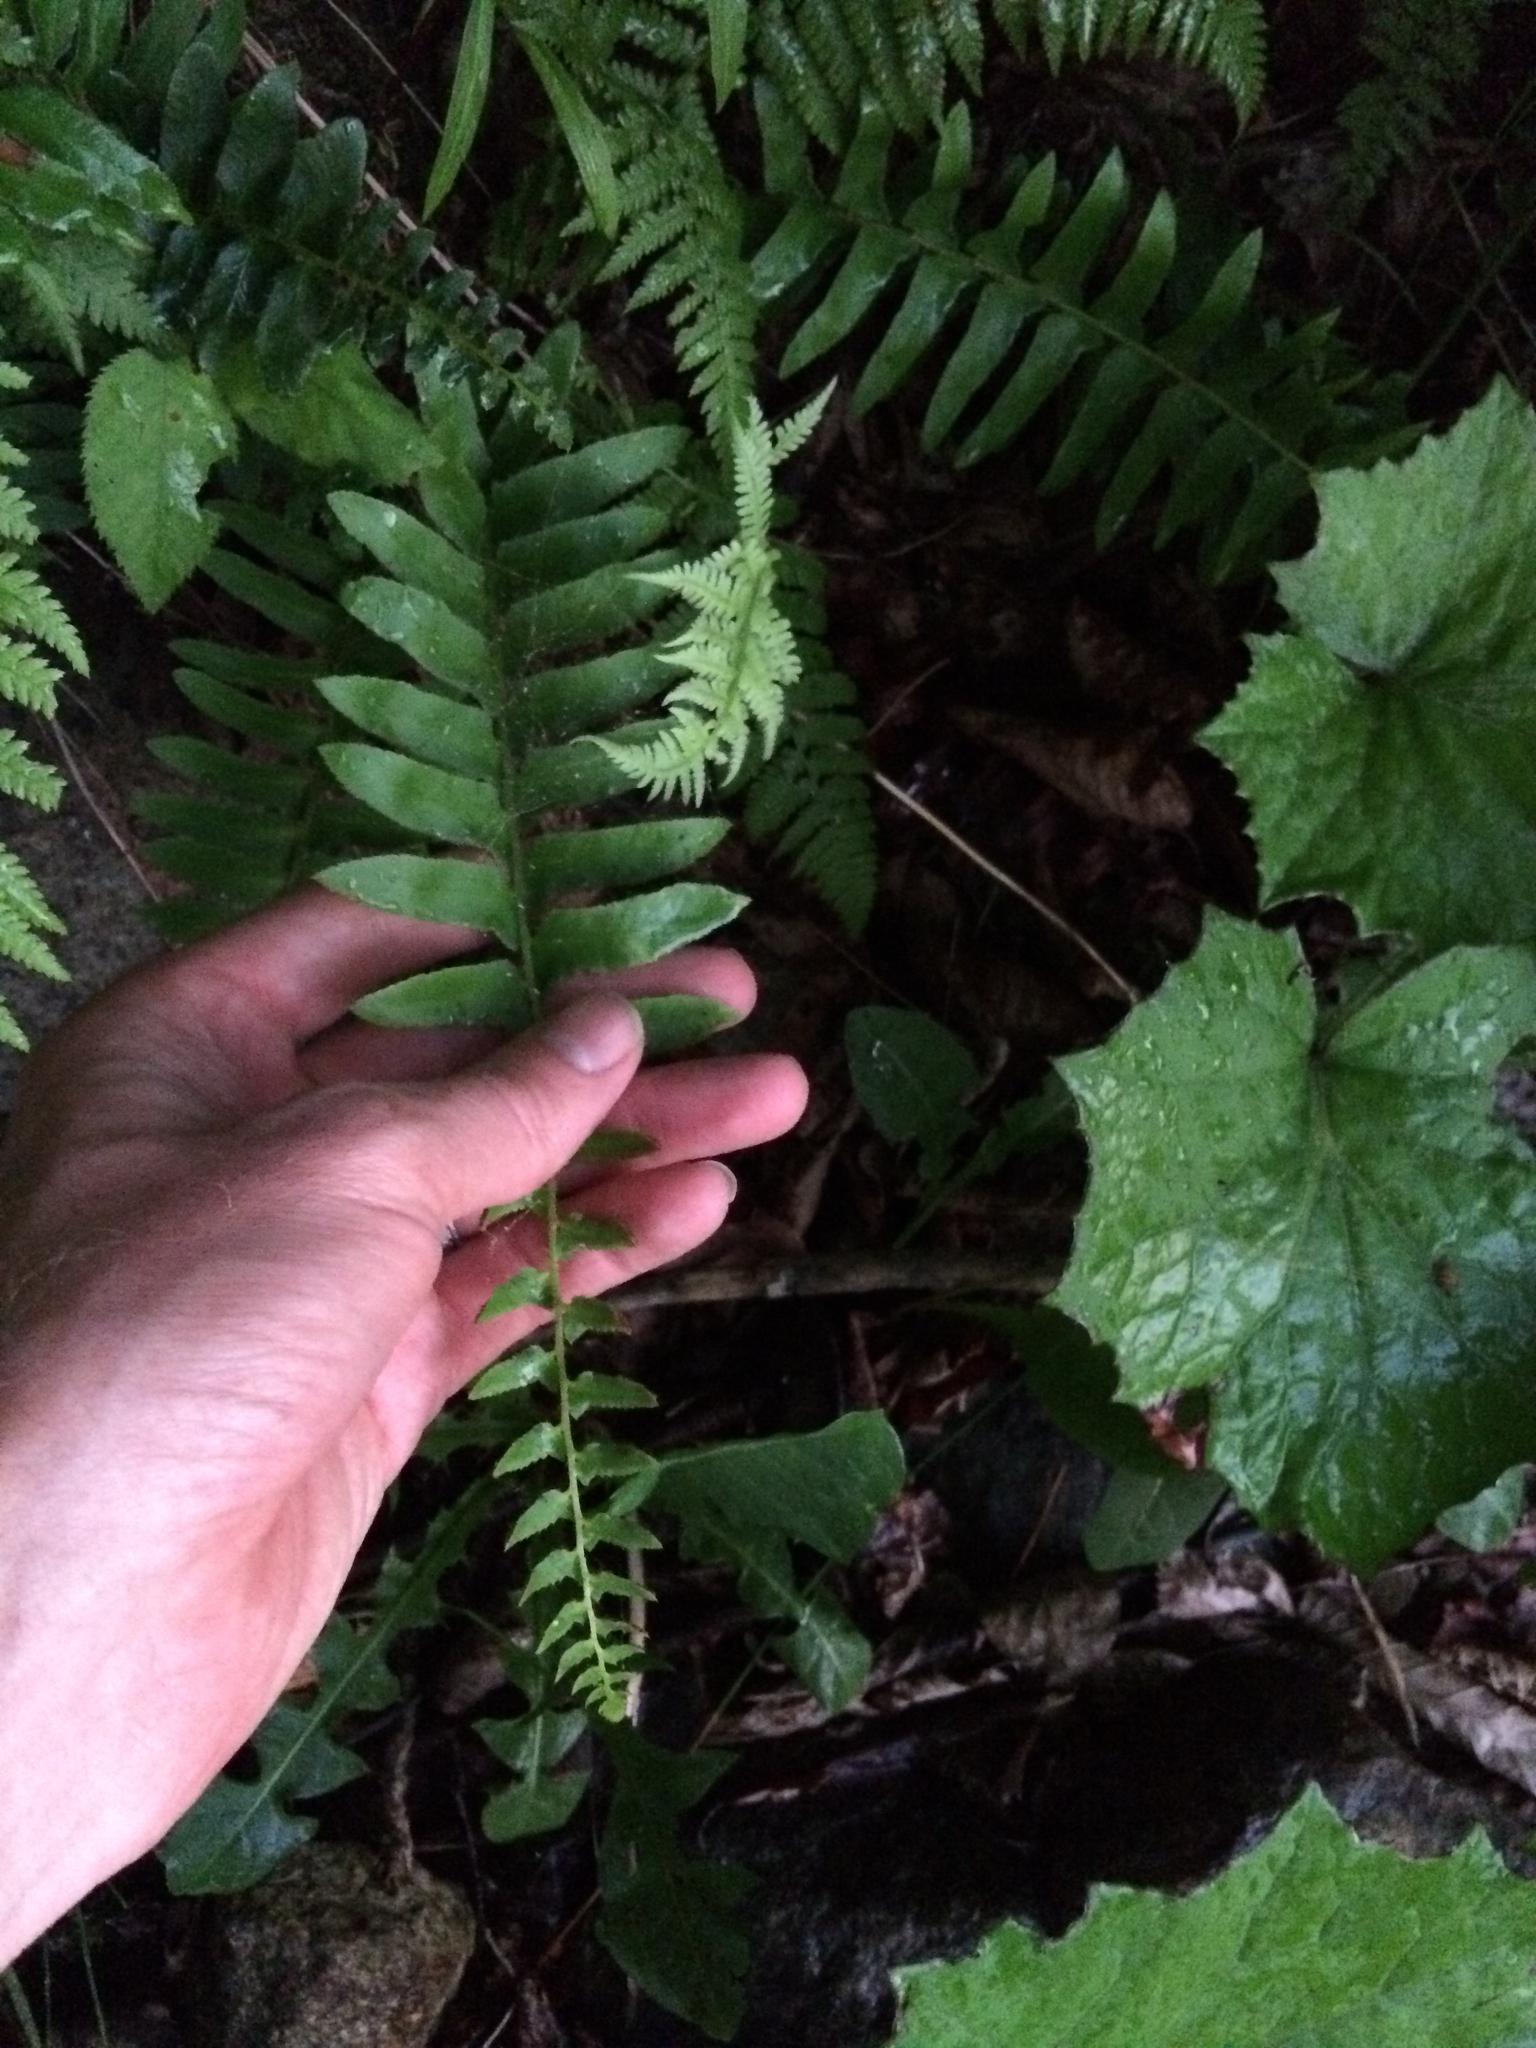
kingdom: Plantae
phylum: Tracheophyta
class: Polypodiopsida
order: Polypodiales
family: Dryopteridaceae
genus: Polystichum
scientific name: Polystichum acrostichoides
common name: Christmas fern
